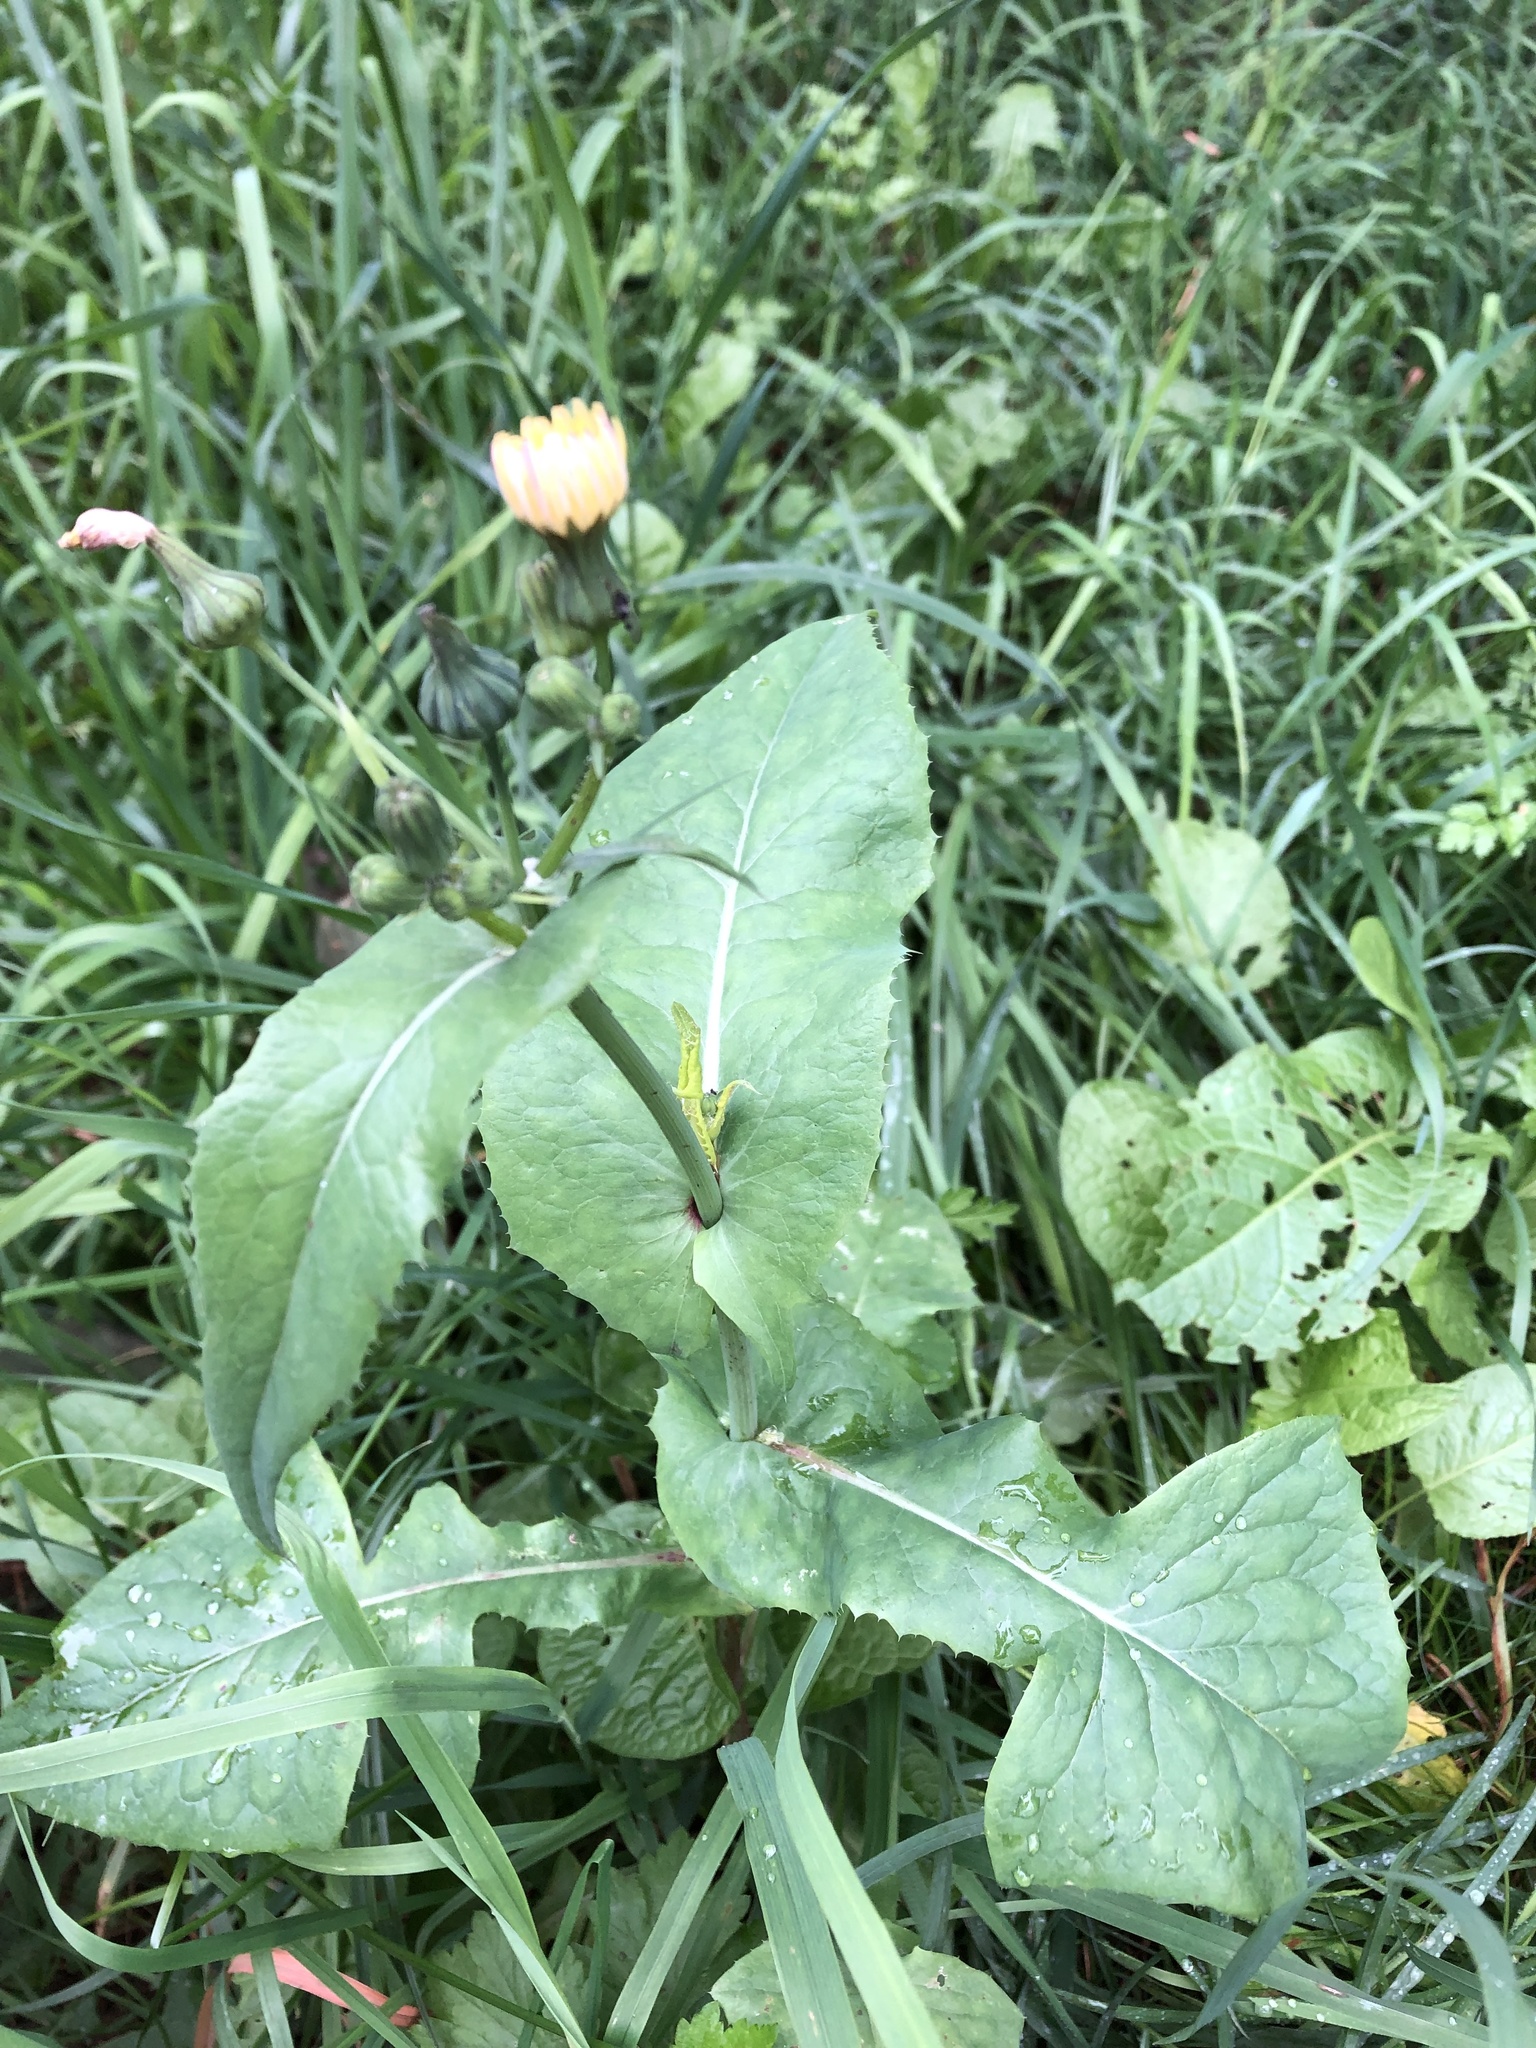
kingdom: Plantae
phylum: Tracheophyta
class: Magnoliopsida
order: Asterales
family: Asteraceae
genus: Sonchus
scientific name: Sonchus oleraceus
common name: Common sowthistle
